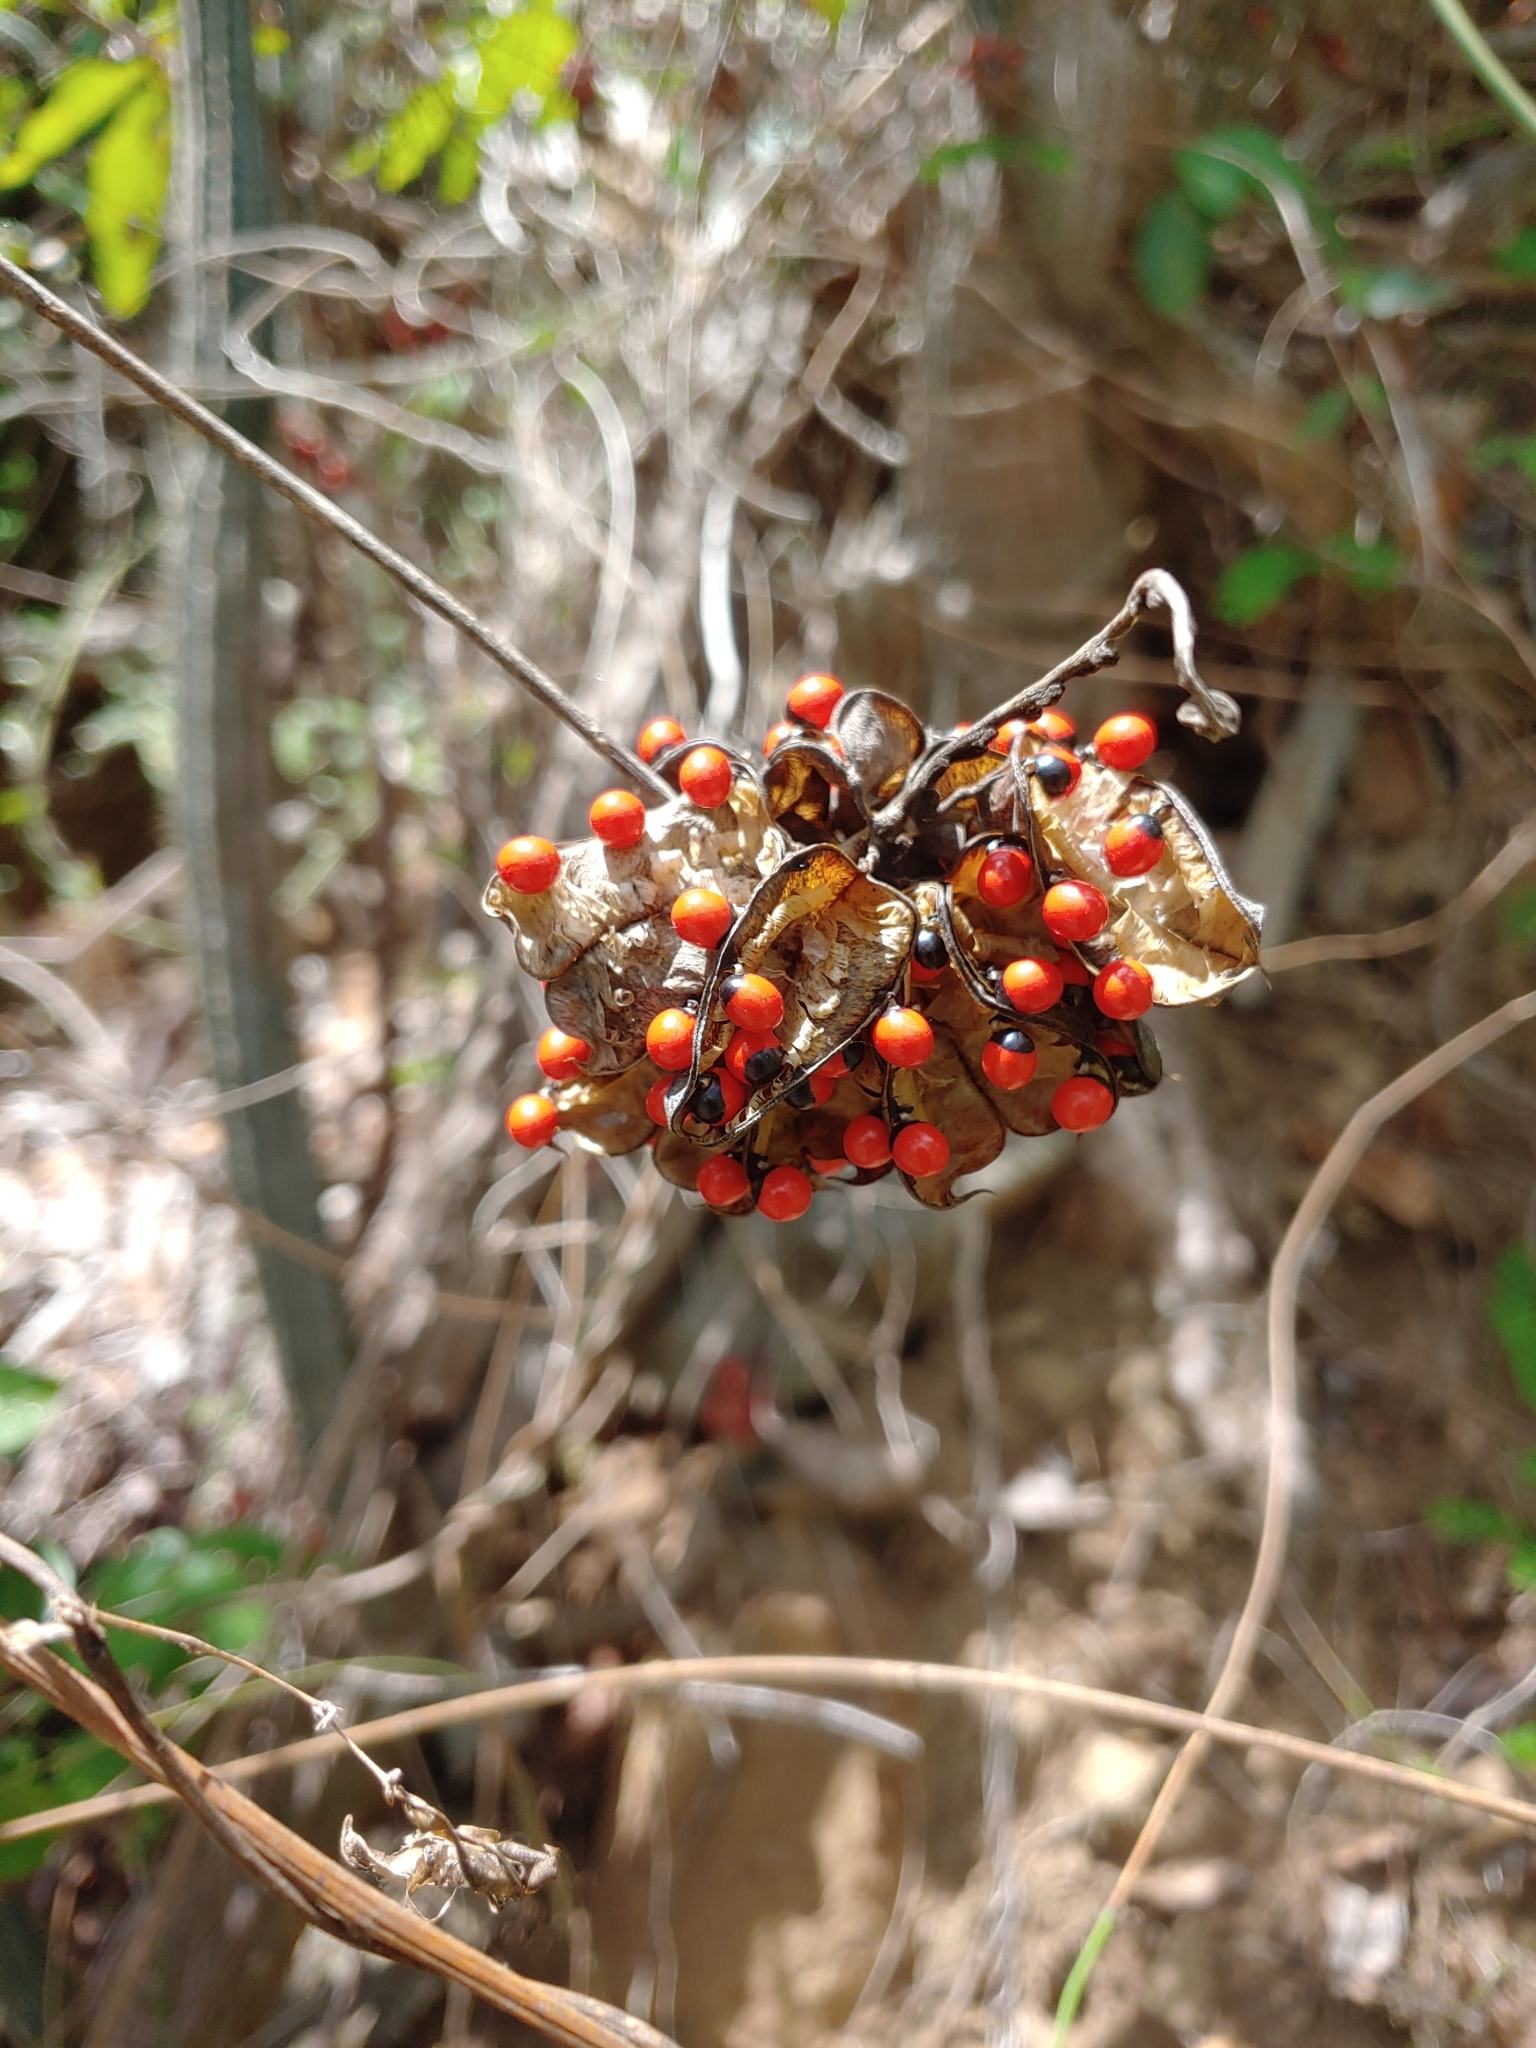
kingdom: Plantae
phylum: Tracheophyta
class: Magnoliopsida
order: Fabales
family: Fabaceae
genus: Abrus
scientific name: Abrus precatorius
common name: Rosarypea
